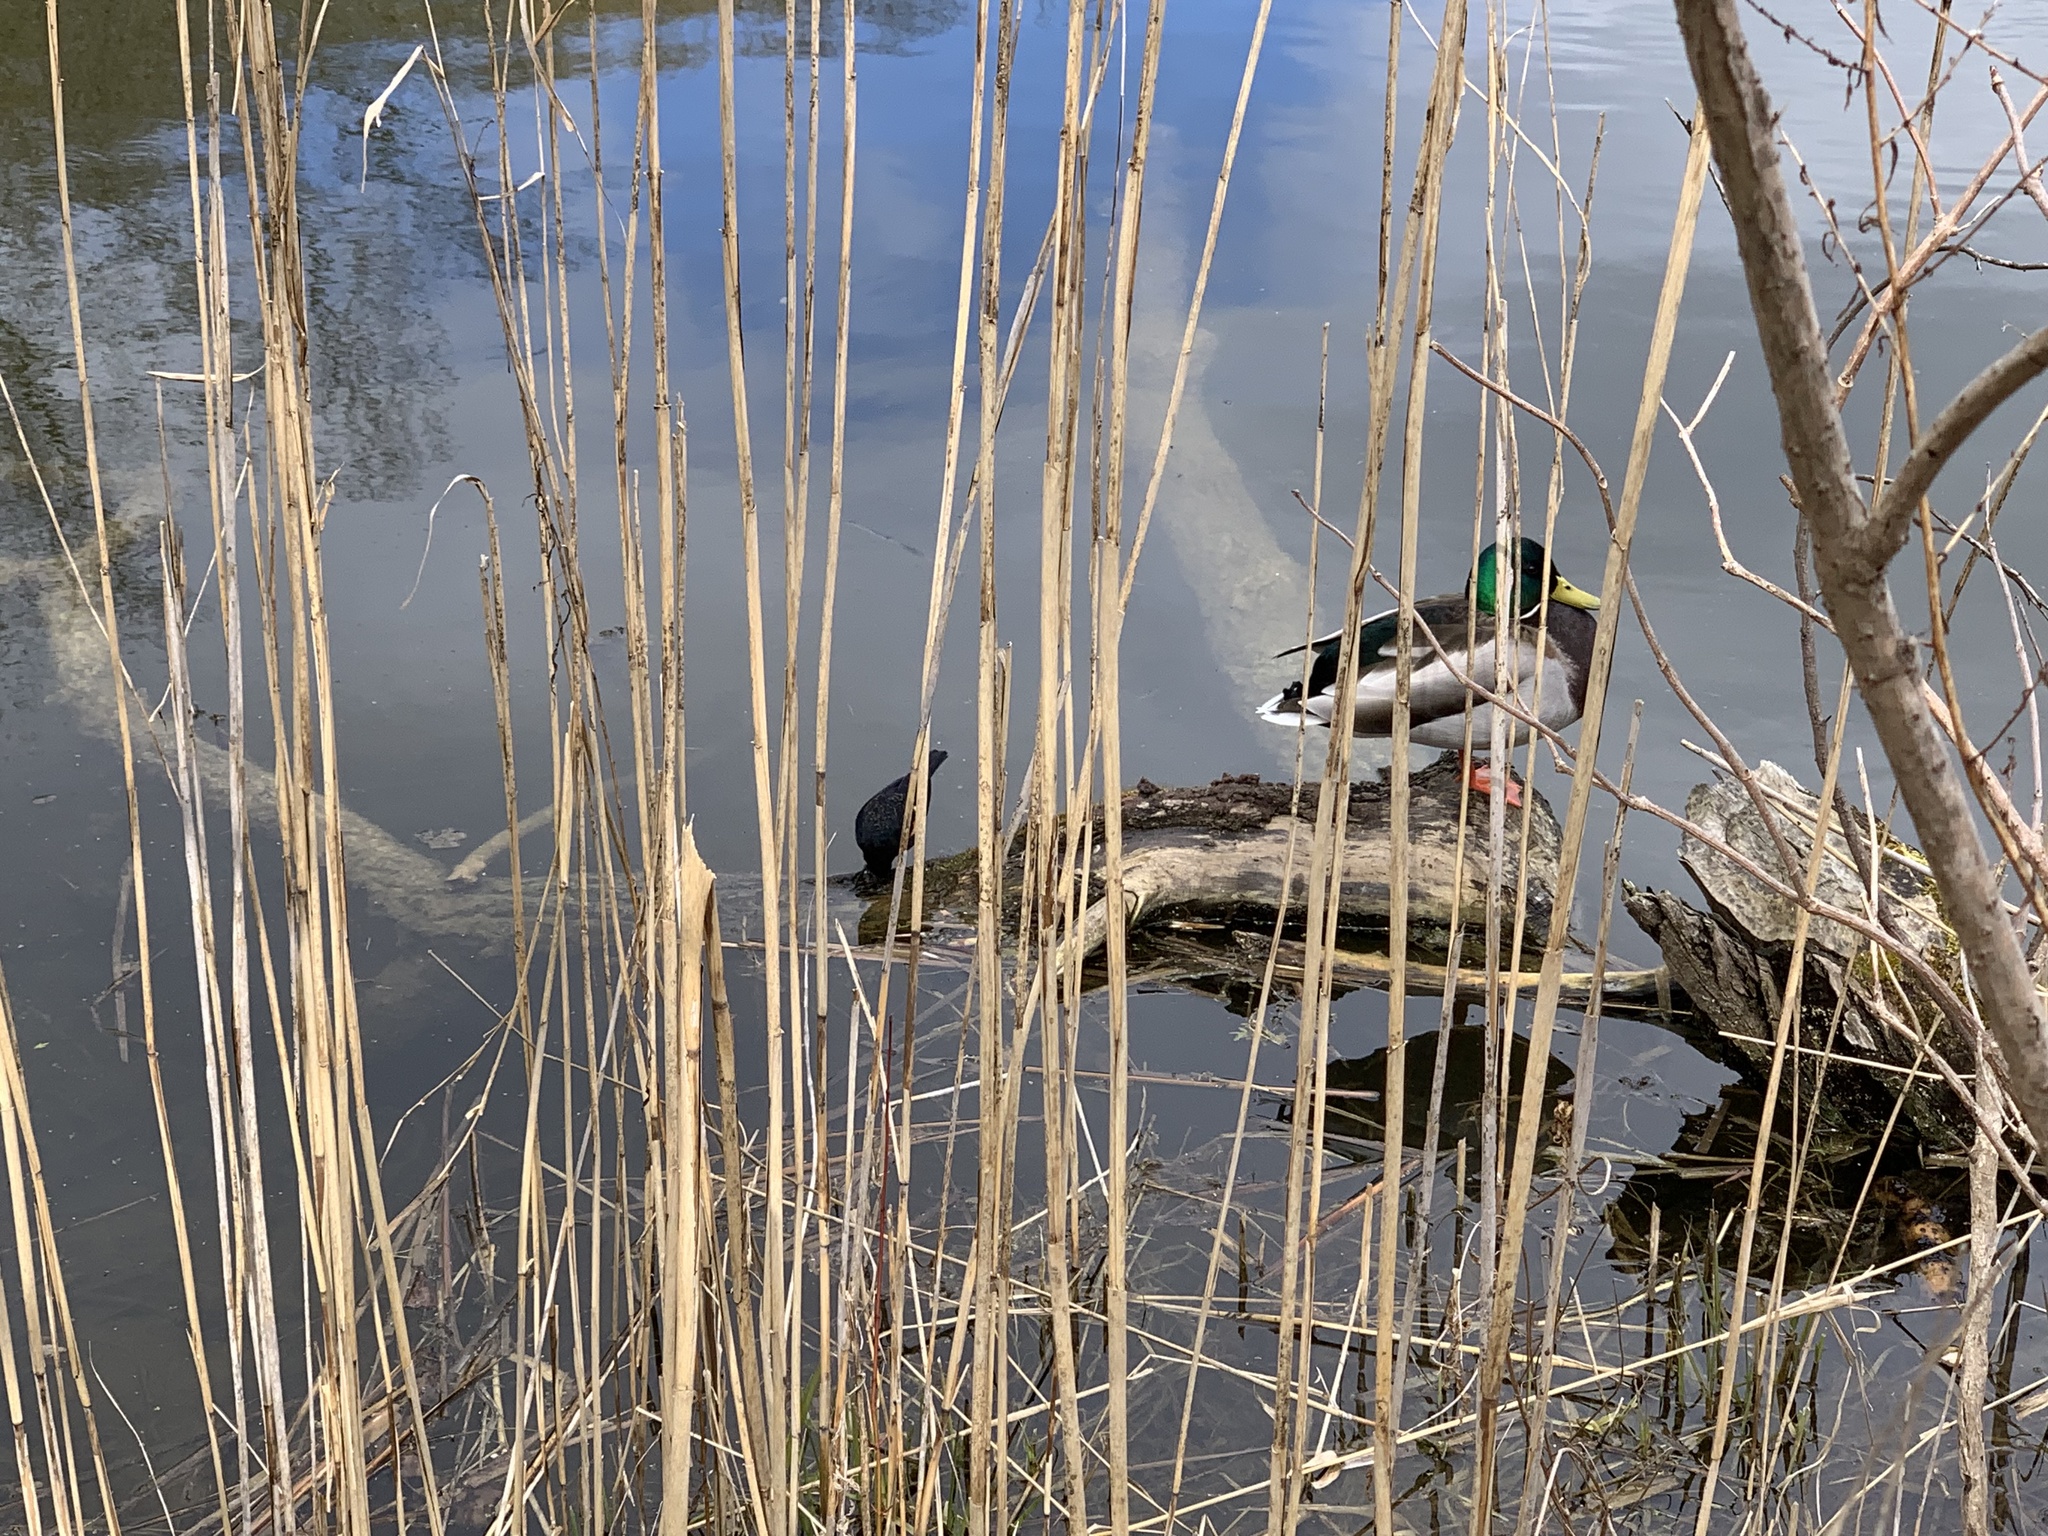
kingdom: Animalia
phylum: Chordata
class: Aves
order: Passeriformes
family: Icteridae
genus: Agelaius
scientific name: Agelaius phoeniceus
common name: Red-winged blackbird
